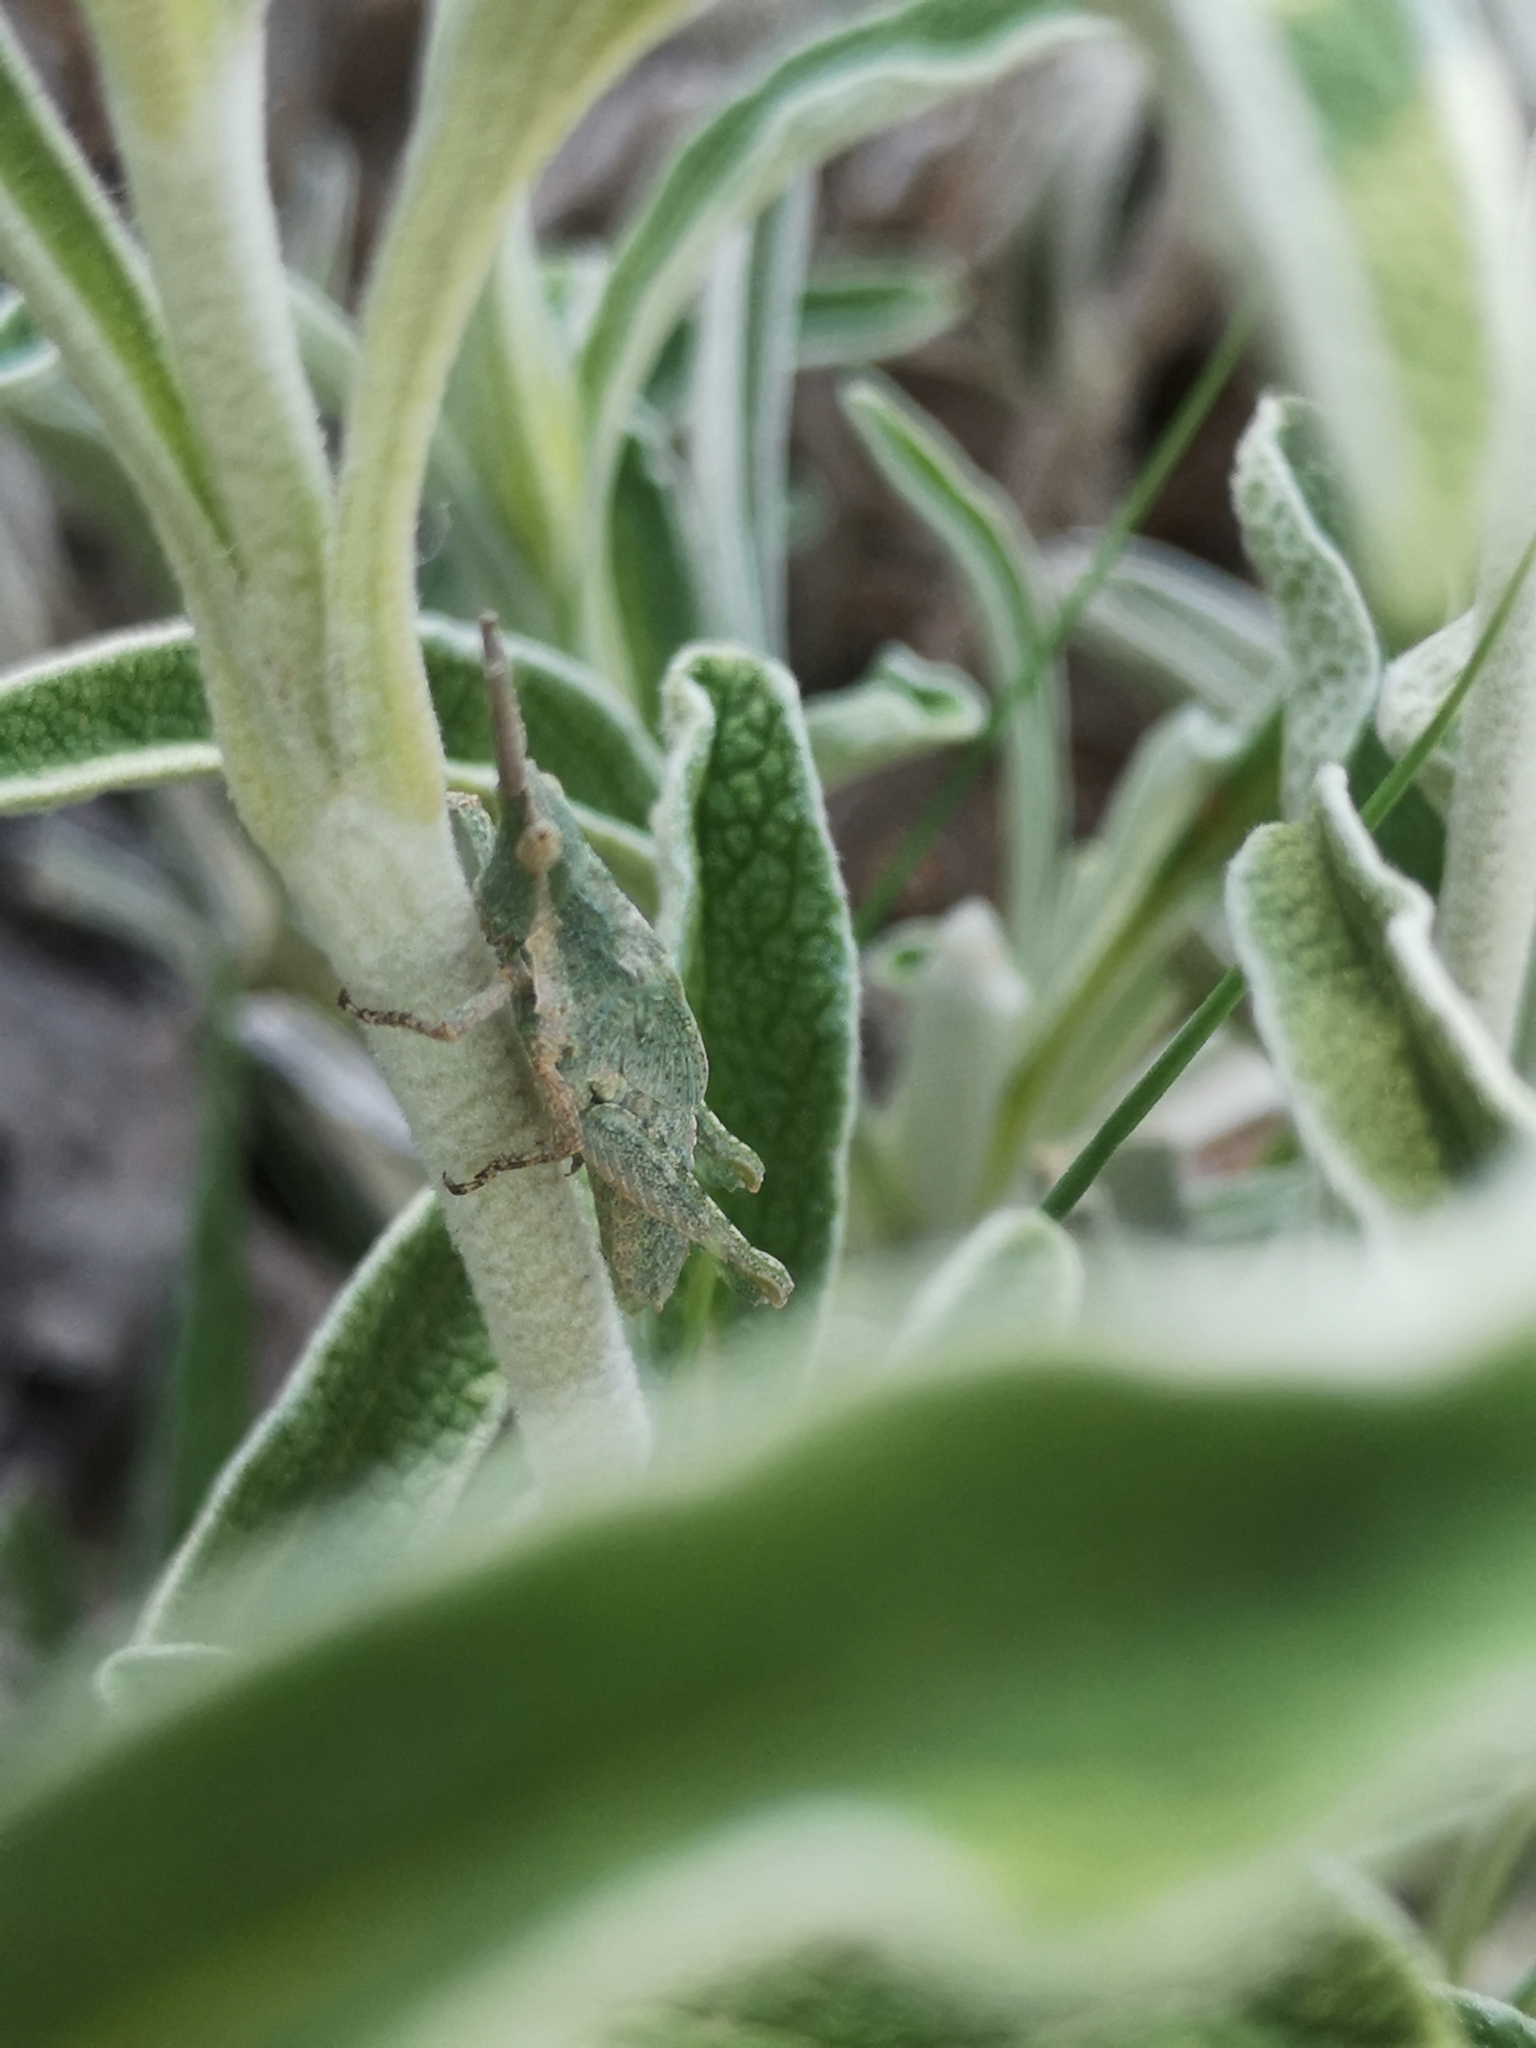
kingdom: Animalia
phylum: Arthropoda
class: Insecta
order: Orthoptera
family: Pyrgomorphidae
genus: Pyrgomorpha
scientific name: Pyrgomorpha conica
